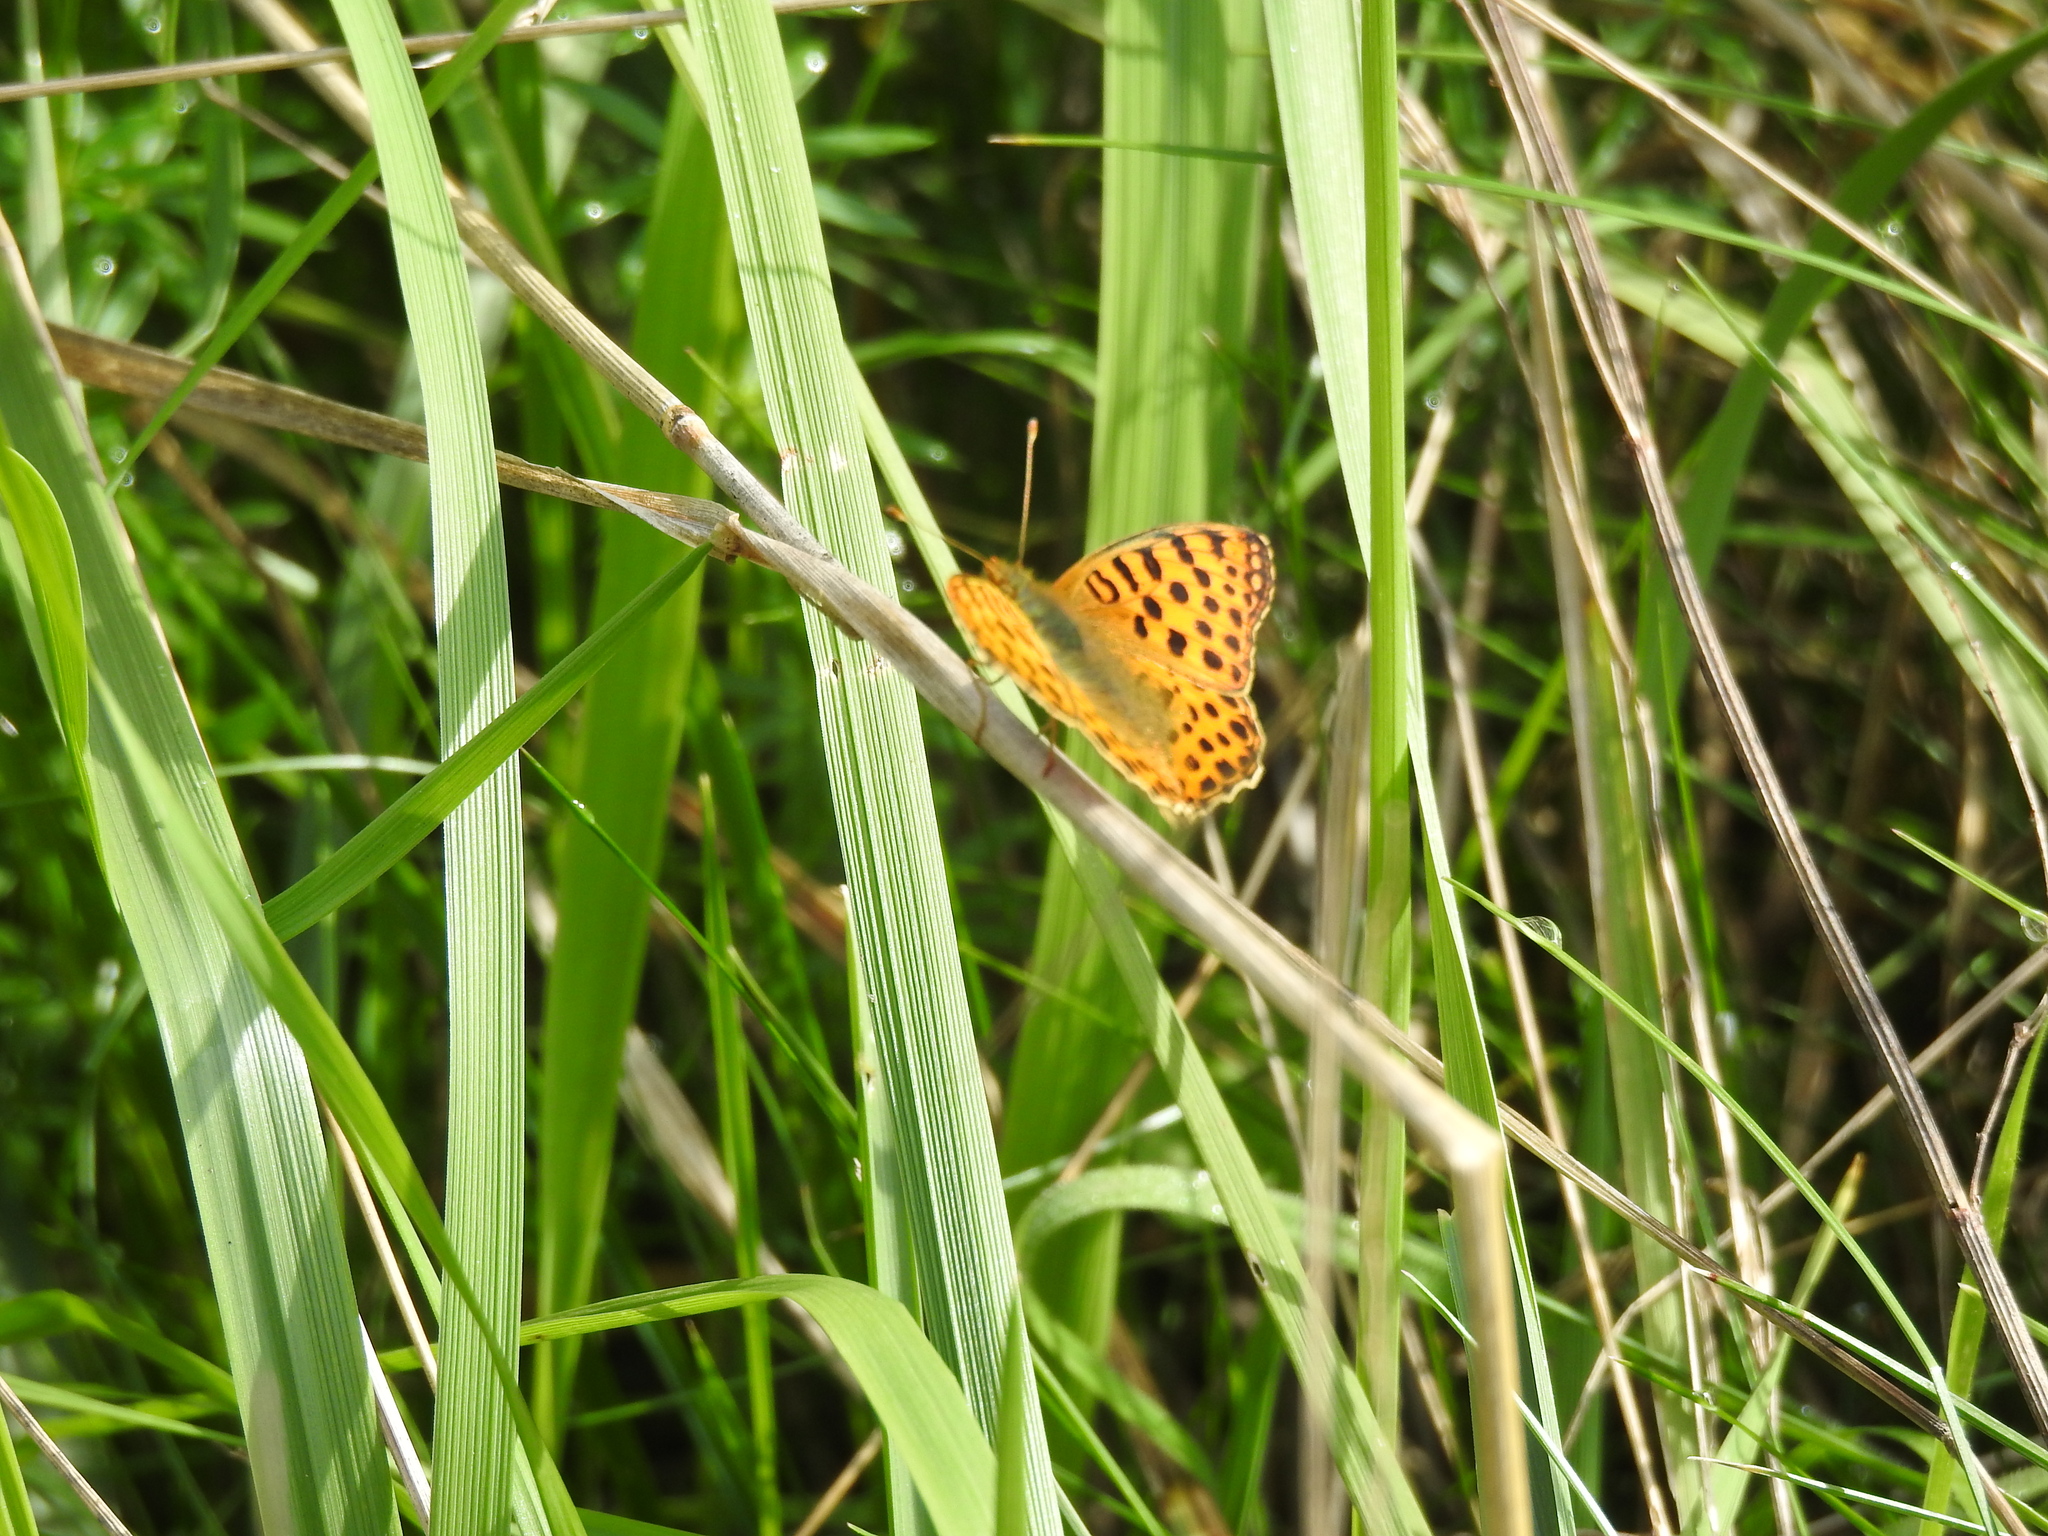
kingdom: Animalia
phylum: Arthropoda
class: Insecta
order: Lepidoptera
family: Nymphalidae
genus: Issoria
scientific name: Issoria lathonia
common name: Queen of spain fritillary
